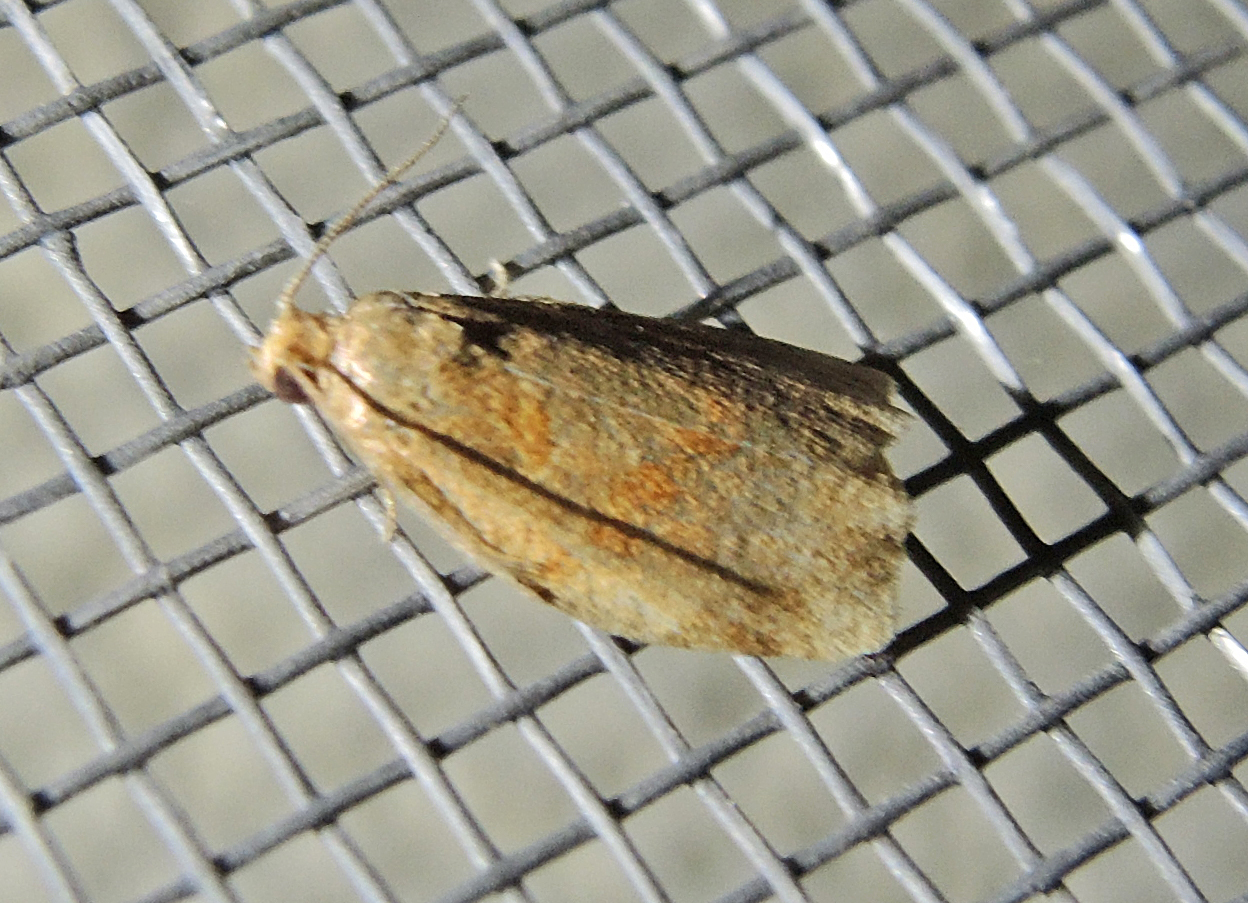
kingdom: Animalia
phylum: Arthropoda
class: Insecta
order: Lepidoptera
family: Tortricidae
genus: Clepsis
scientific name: Clepsis consimilana
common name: Privet tortrix
